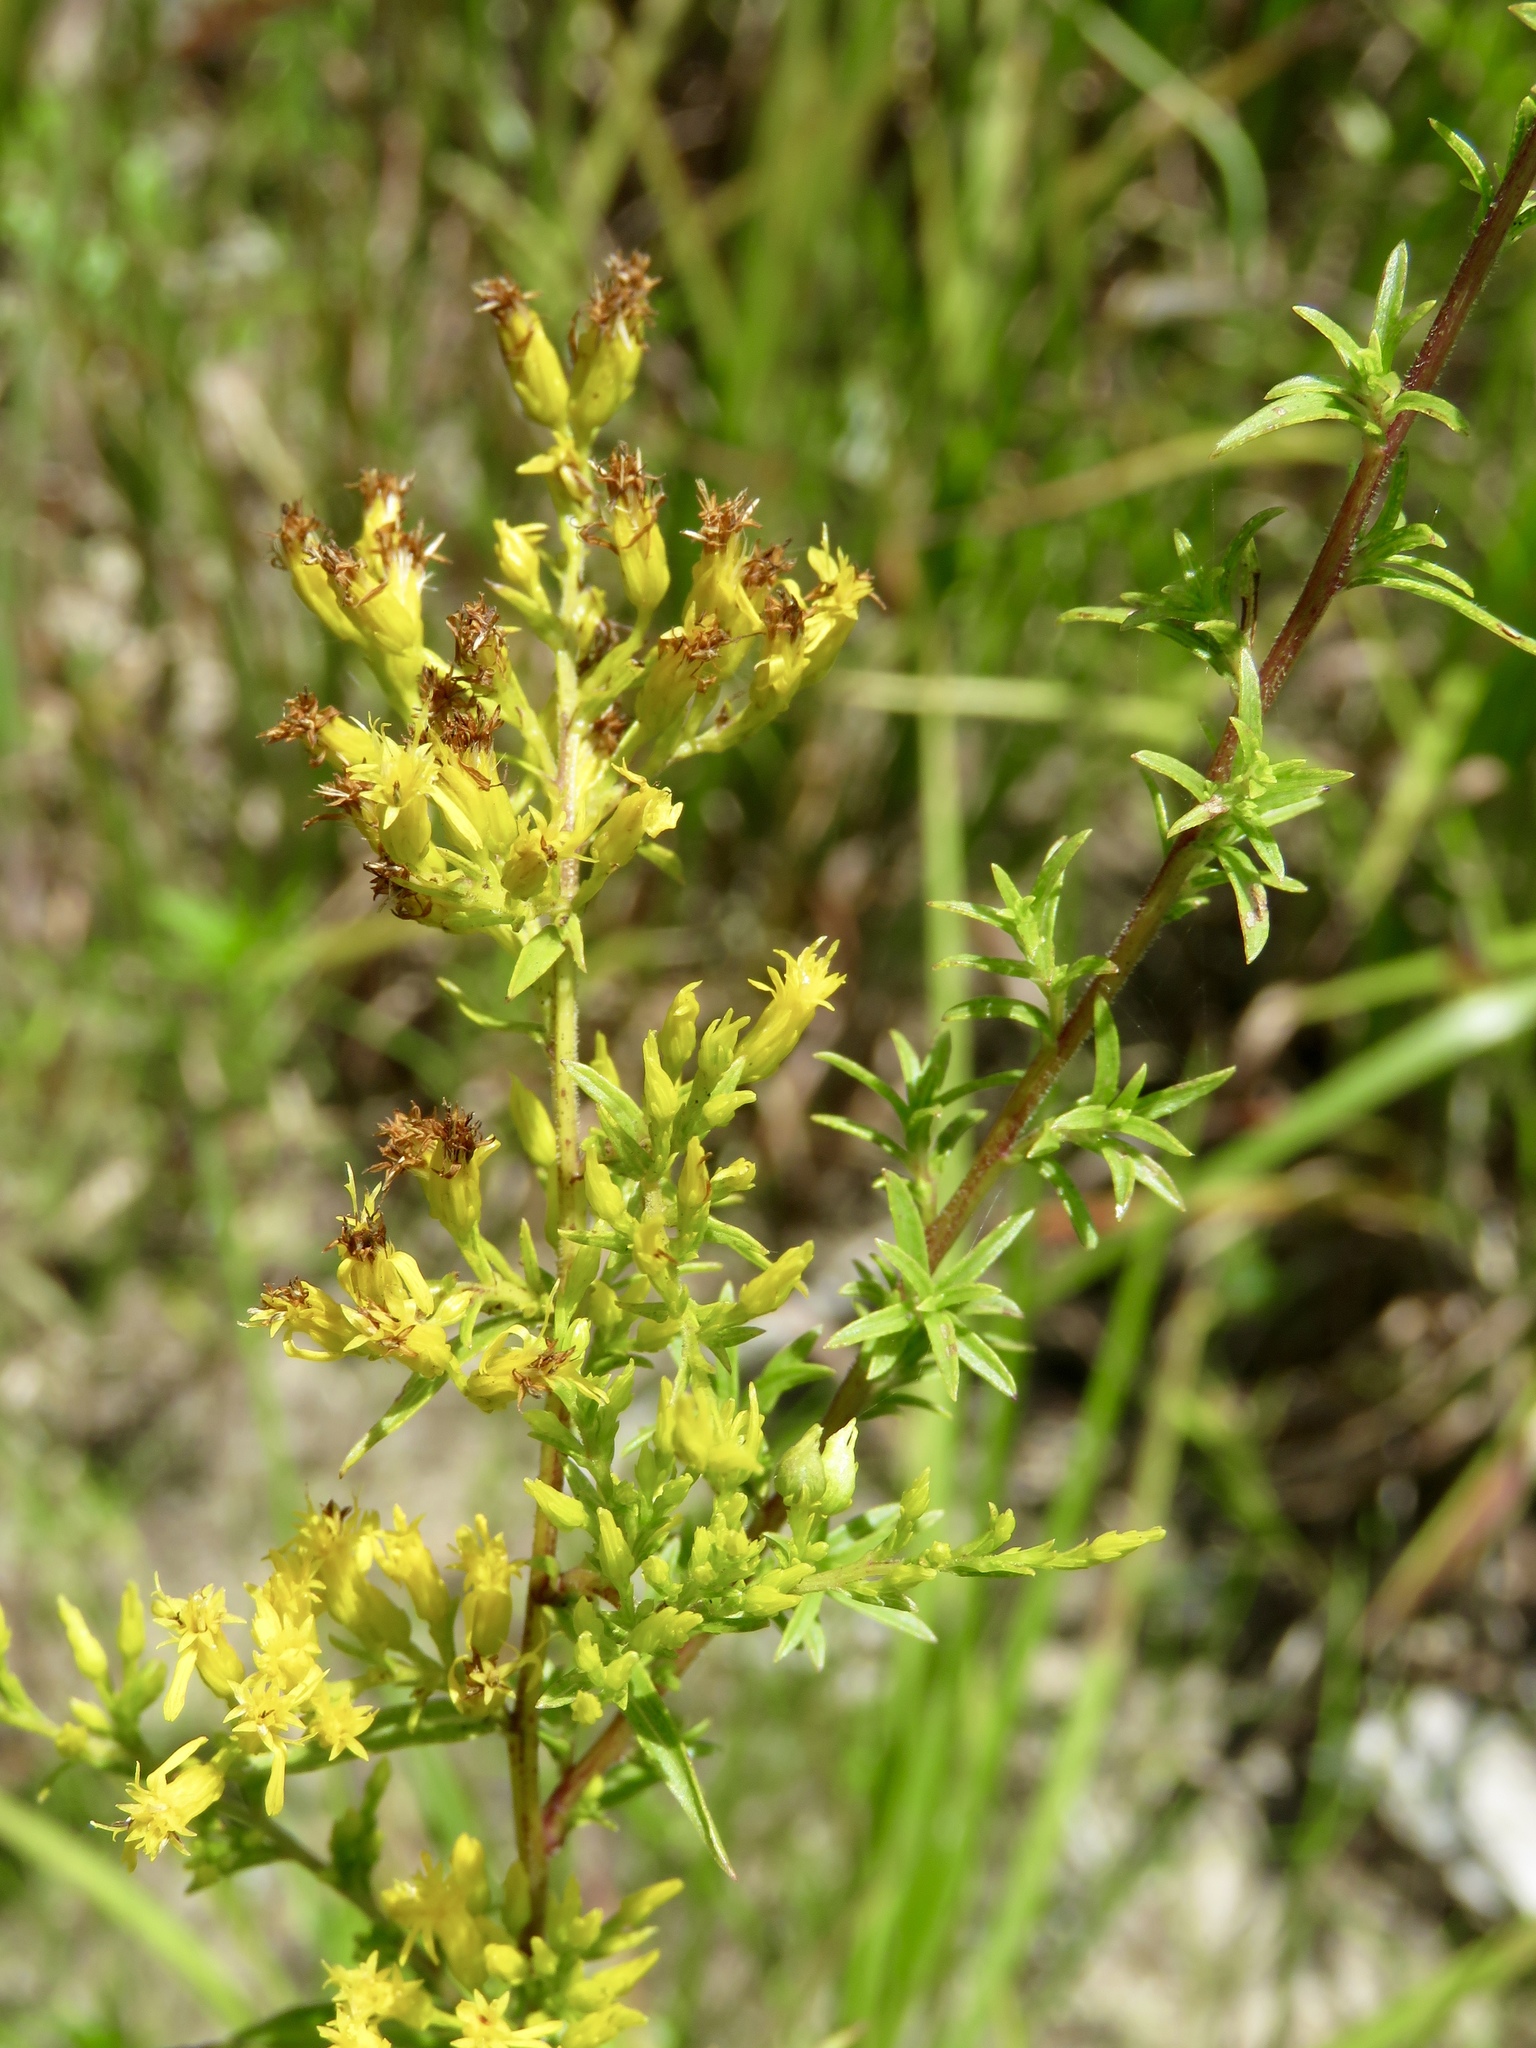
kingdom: Plantae
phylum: Tracheophyta
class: Magnoliopsida
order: Asterales
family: Asteraceae
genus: Solidago
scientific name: Solidago odora
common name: Anise-scented goldenrod
